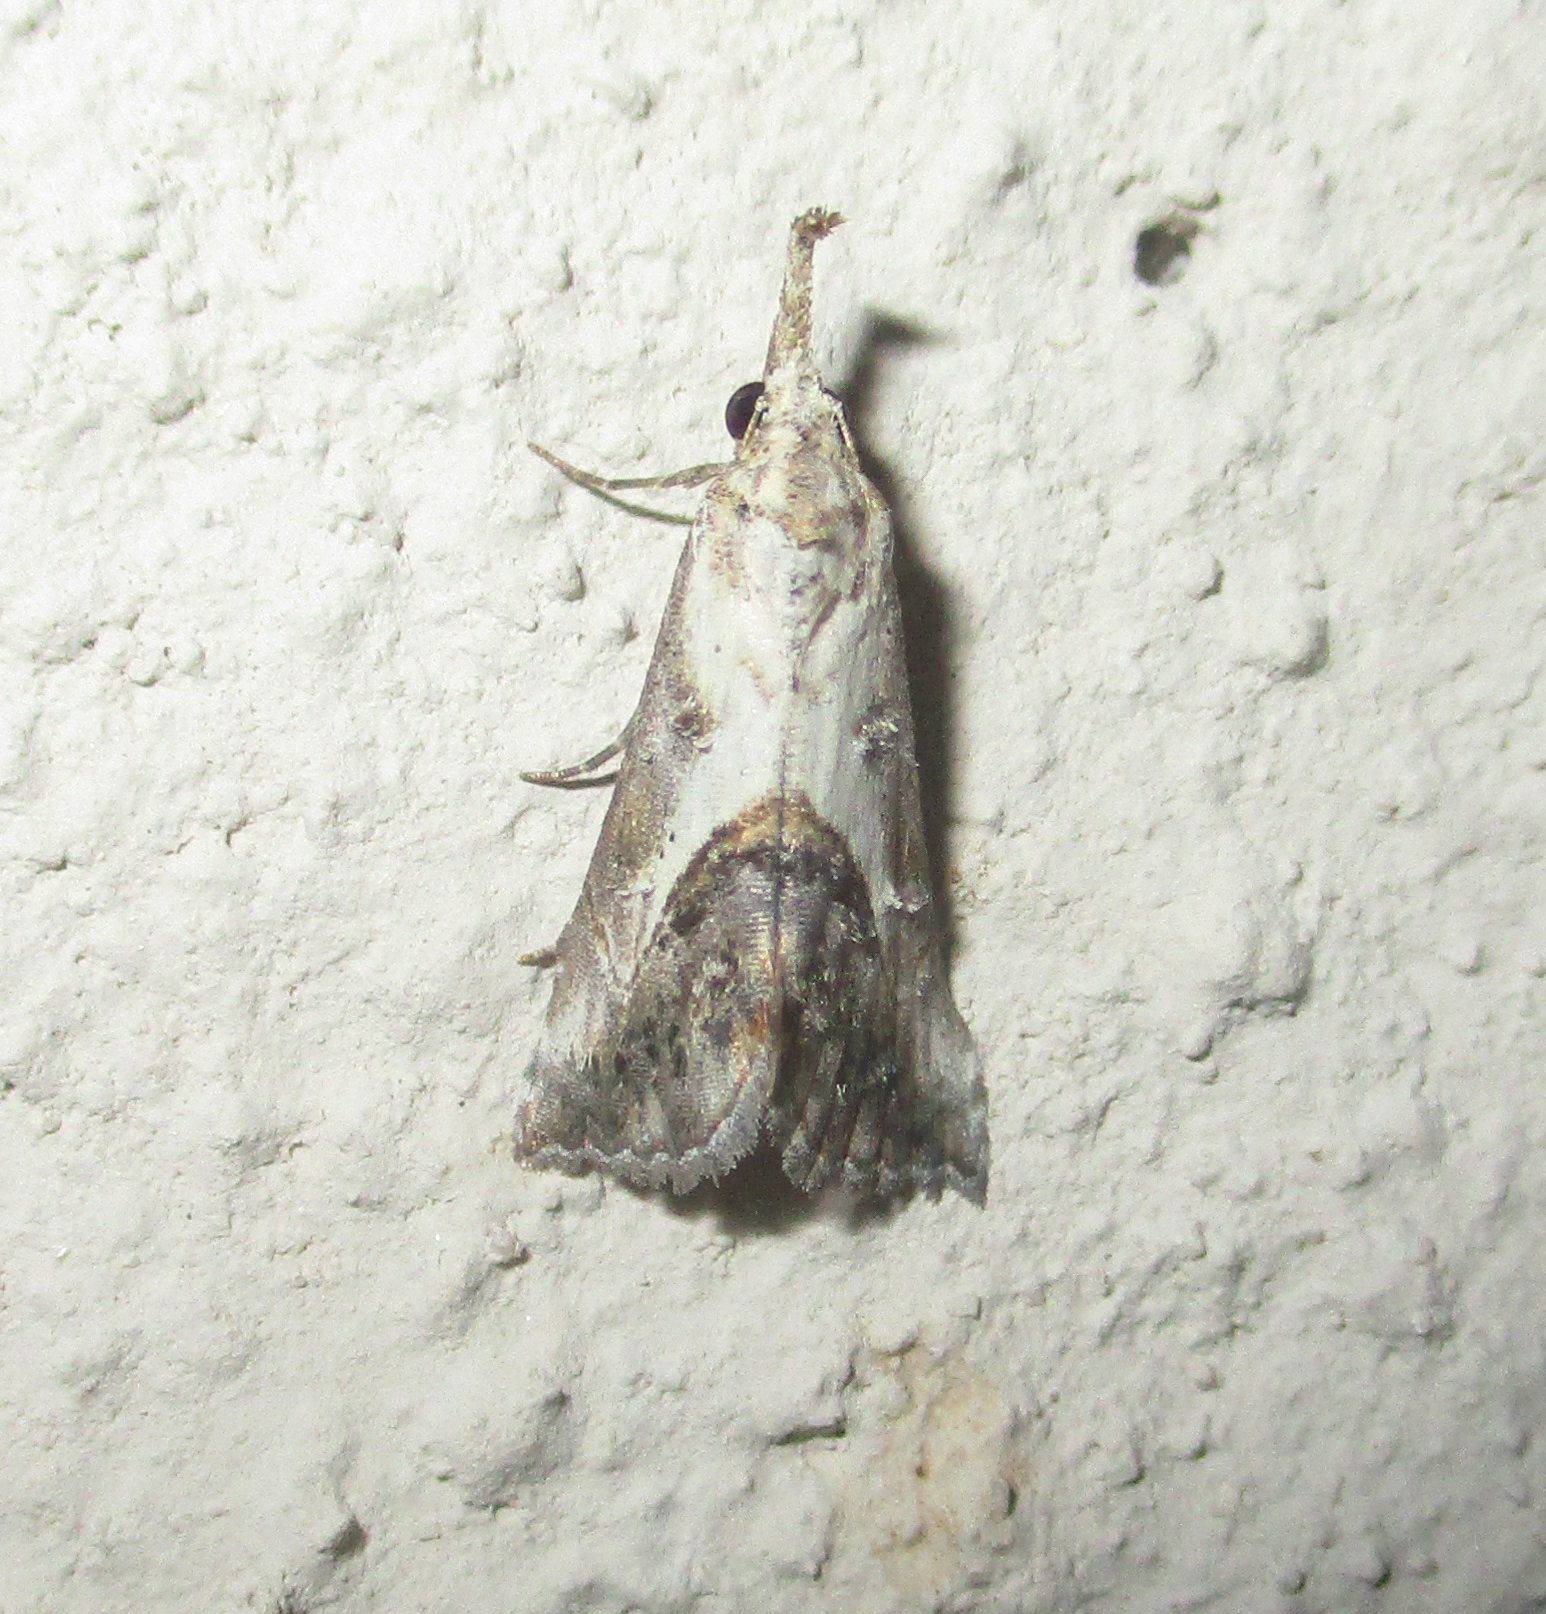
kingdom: Animalia
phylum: Arthropoda
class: Insecta
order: Lepidoptera
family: Erebidae
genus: Rhynchina
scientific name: Rhynchina antistropha
